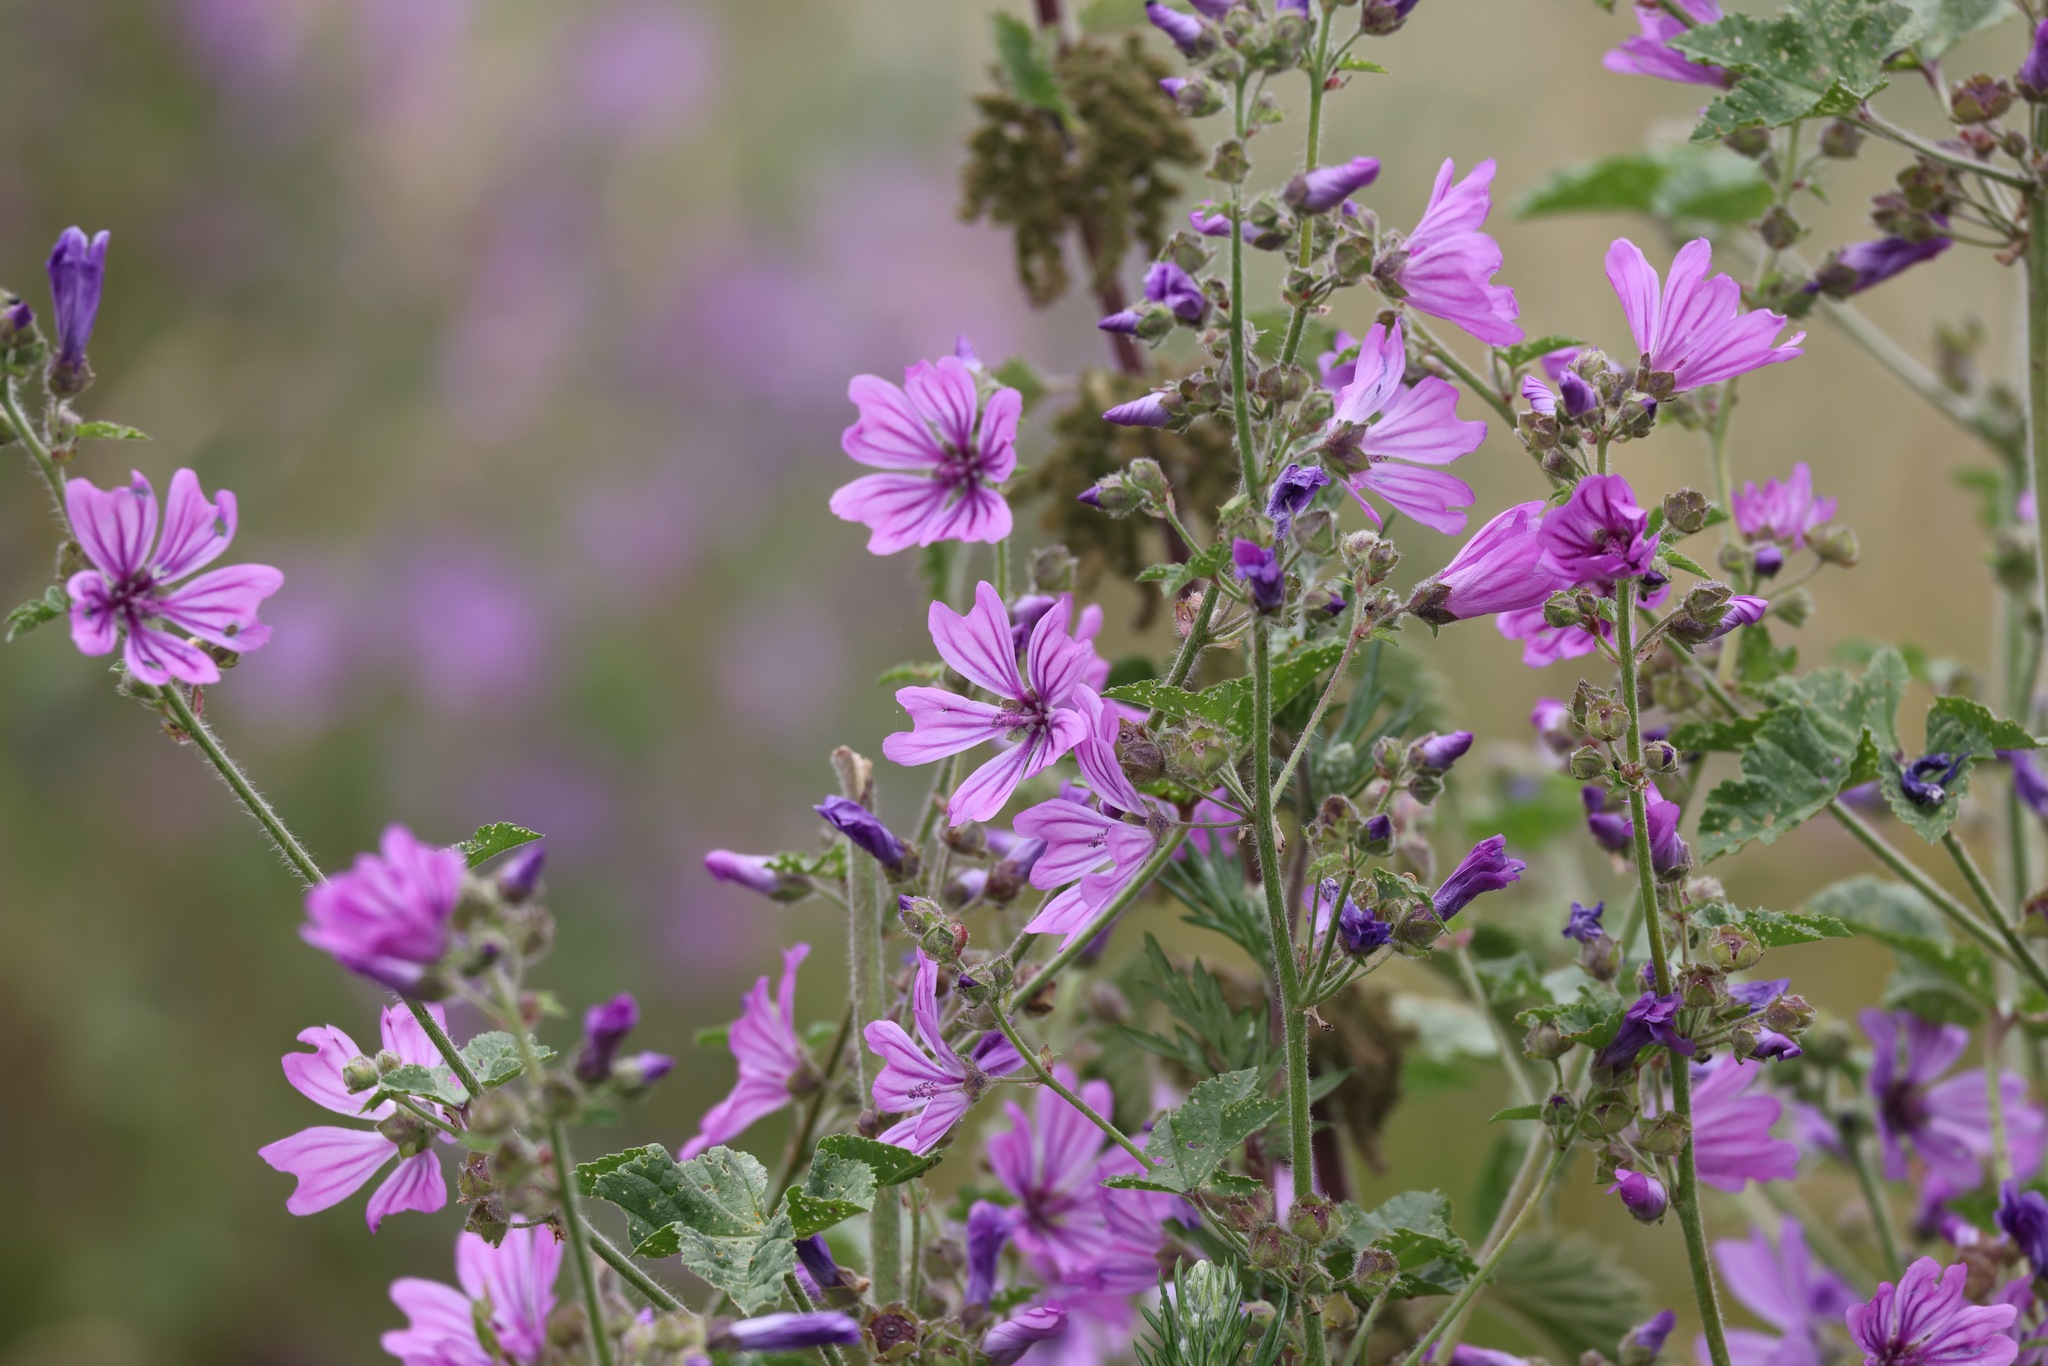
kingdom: Plantae
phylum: Tracheophyta
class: Magnoliopsida
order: Malvales
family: Malvaceae
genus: Malva
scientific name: Malva sylvestris
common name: Common mallow
